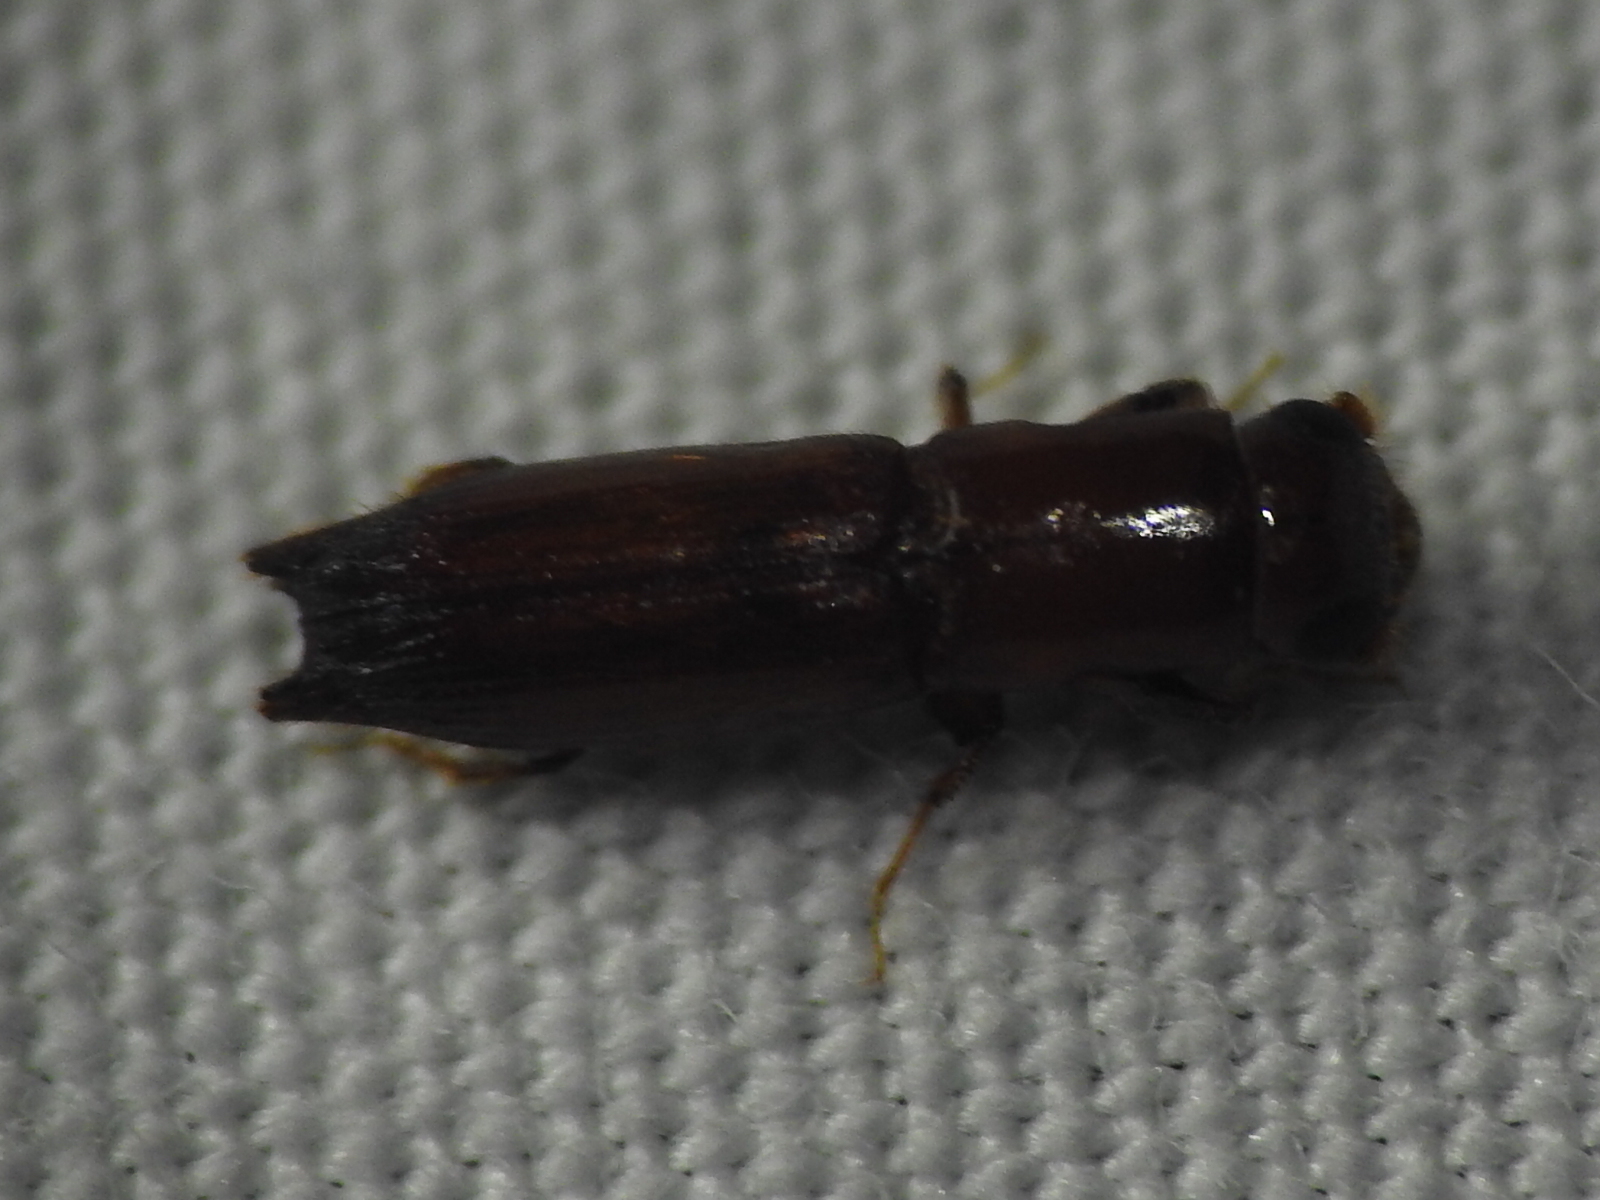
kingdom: Animalia
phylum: Arthropoda
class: Insecta
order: Coleoptera
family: Curculionidae
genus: Euplatypus
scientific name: Euplatypus compositus
